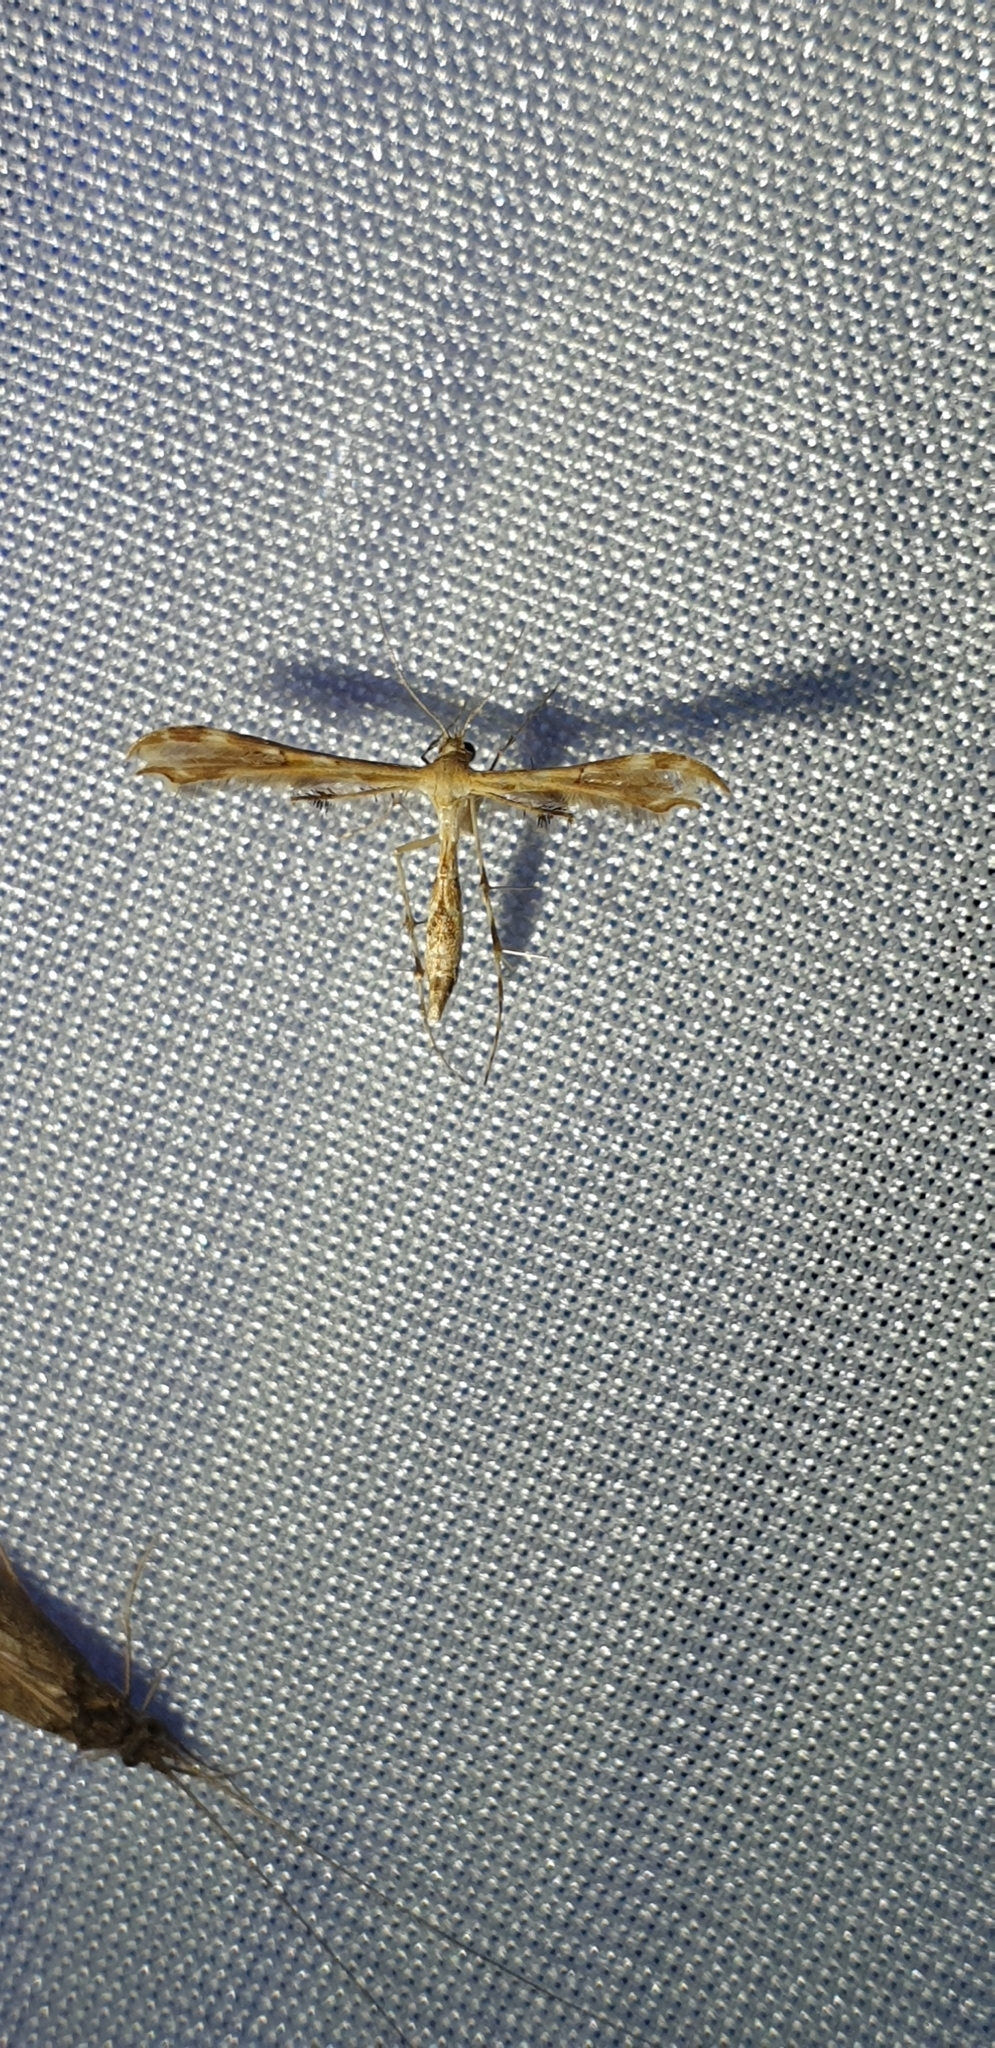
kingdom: Animalia
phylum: Arthropoda
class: Insecta
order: Lepidoptera
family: Pterophoridae
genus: Sphenarches
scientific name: Sphenarches anisodactylus
